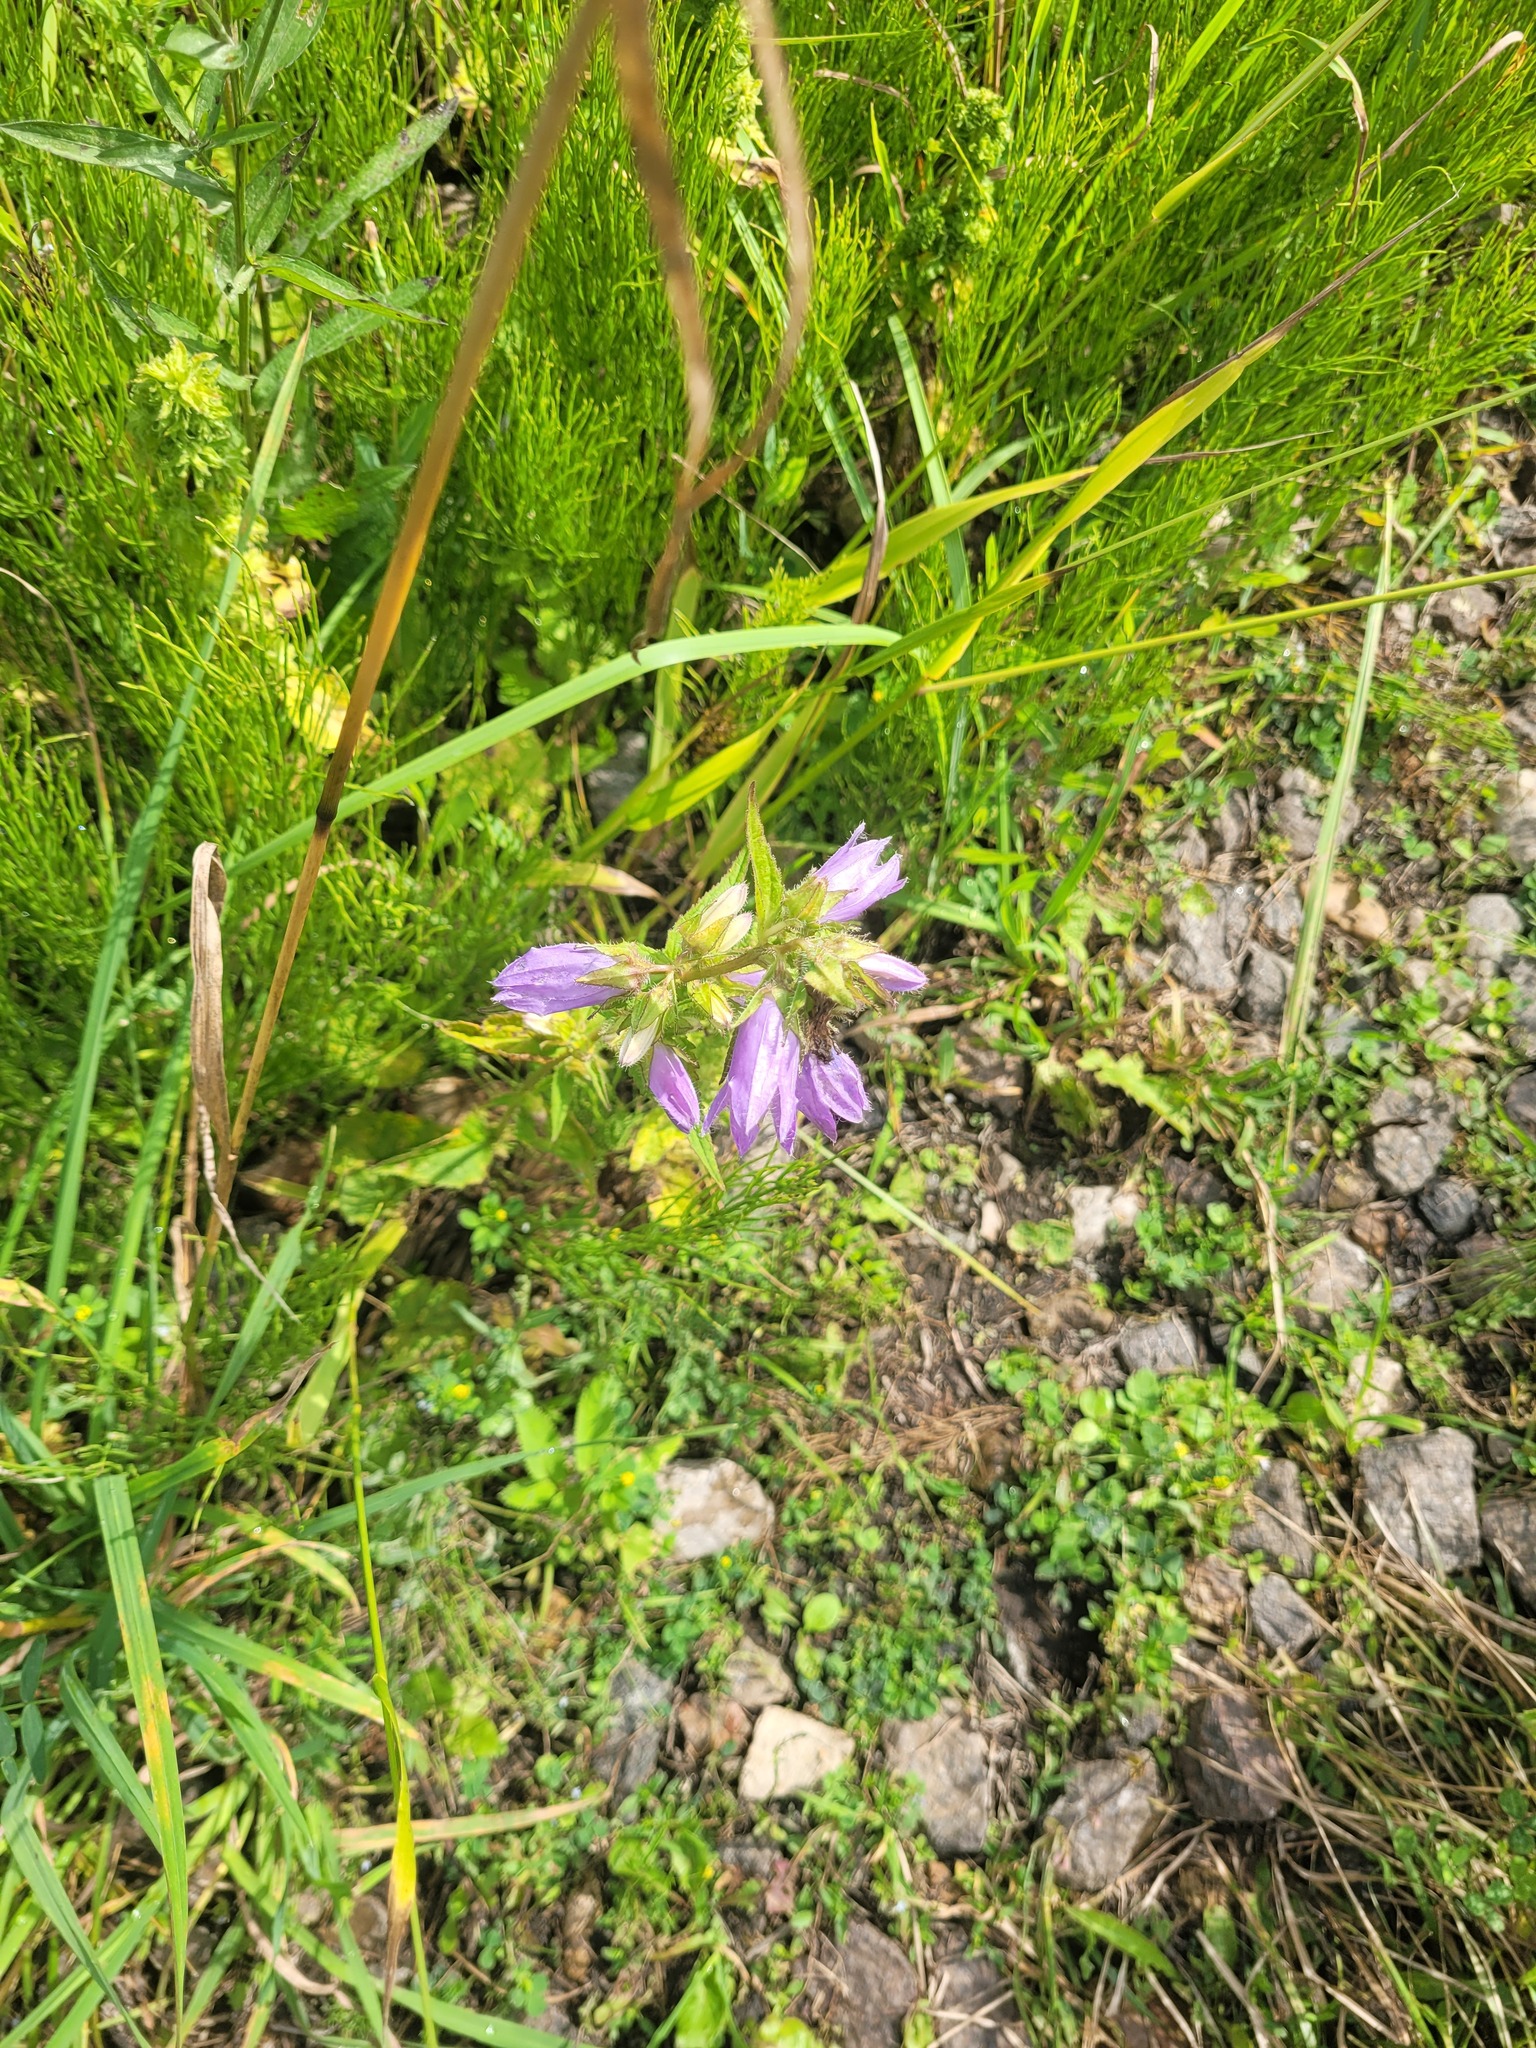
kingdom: Plantae
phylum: Tracheophyta
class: Magnoliopsida
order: Asterales
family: Campanulaceae
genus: Campanula
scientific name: Campanula trachelium
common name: Nettle-leaved bellflower
